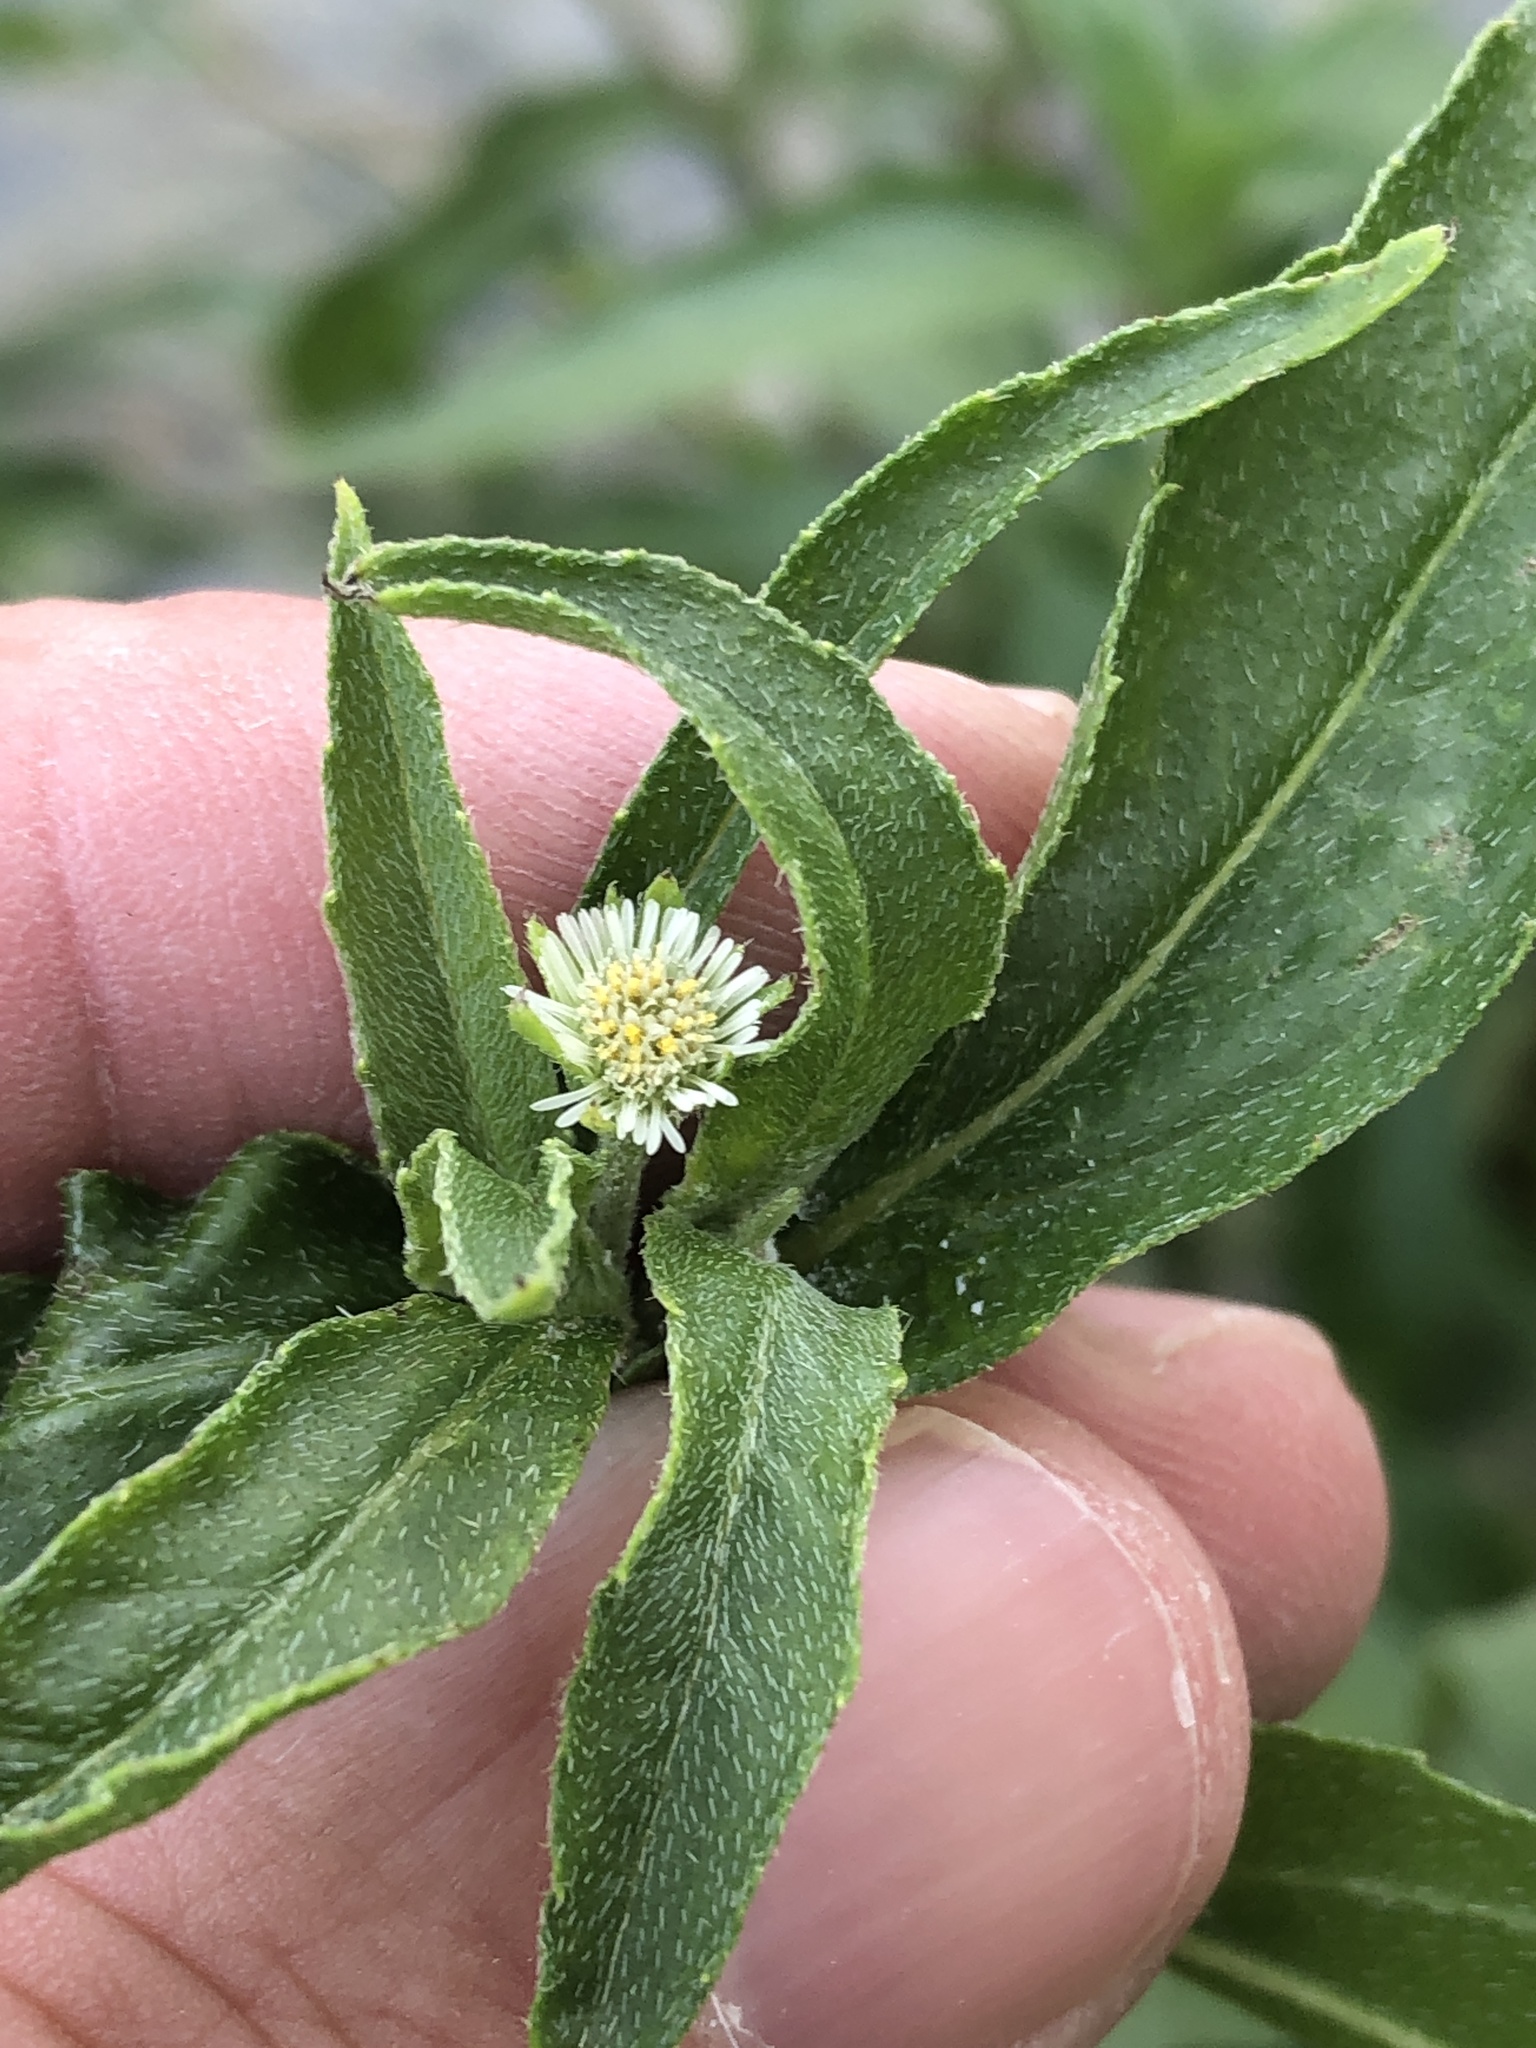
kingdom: Plantae
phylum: Tracheophyta
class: Magnoliopsida
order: Asterales
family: Asteraceae
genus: Eclipta
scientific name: Eclipta prostrata
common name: False daisy
